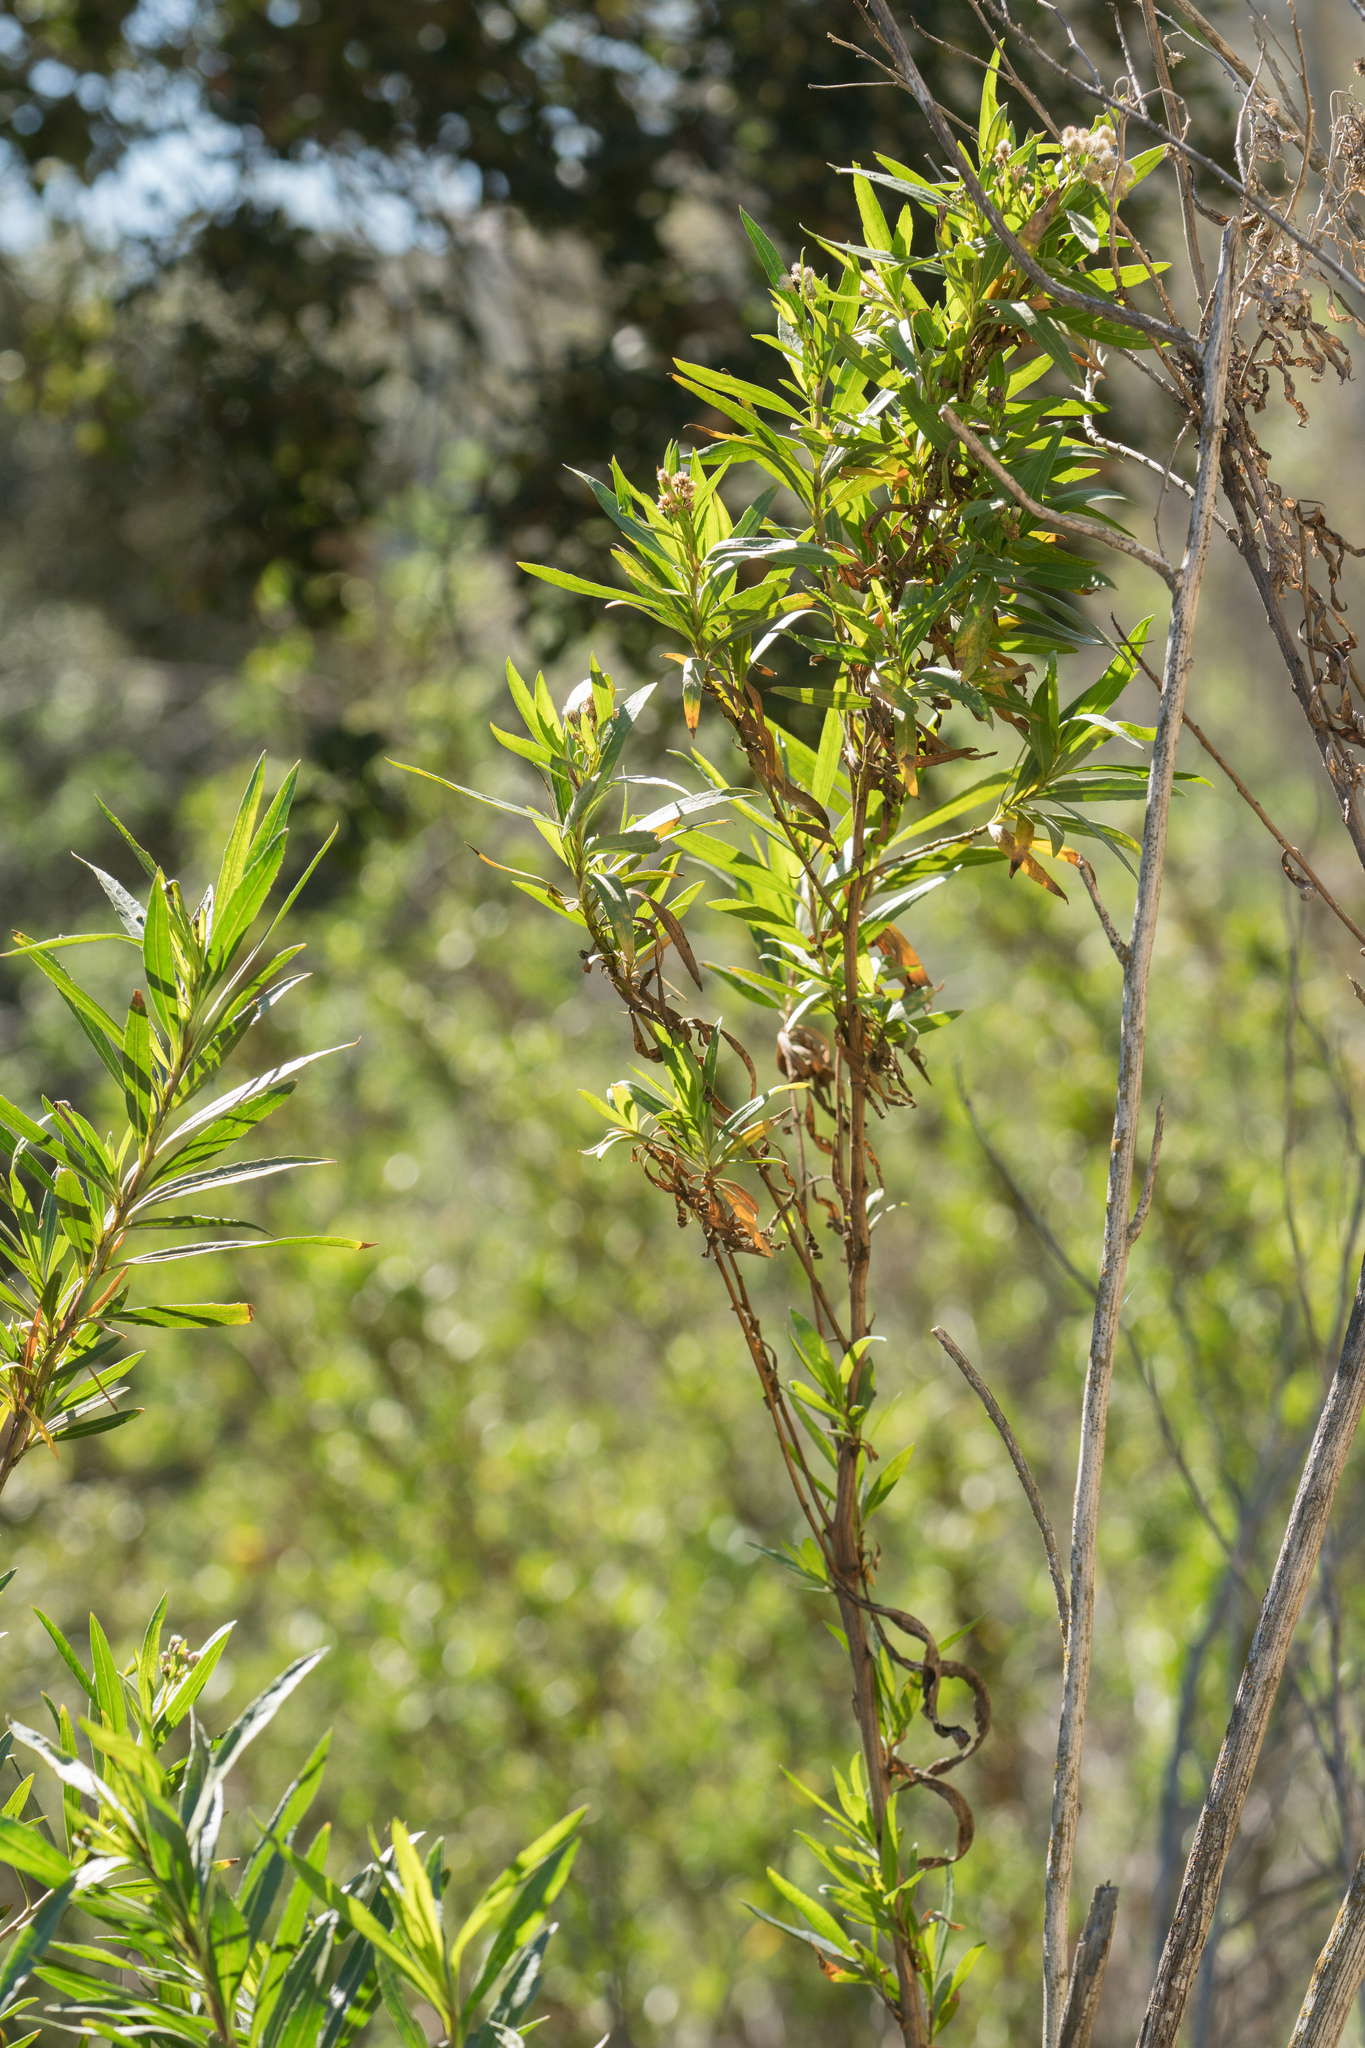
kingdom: Plantae
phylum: Tracheophyta
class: Magnoliopsida
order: Asterales
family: Asteraceae
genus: Baccharis
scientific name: Baccharis salicifolia
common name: Sticky baccharis
